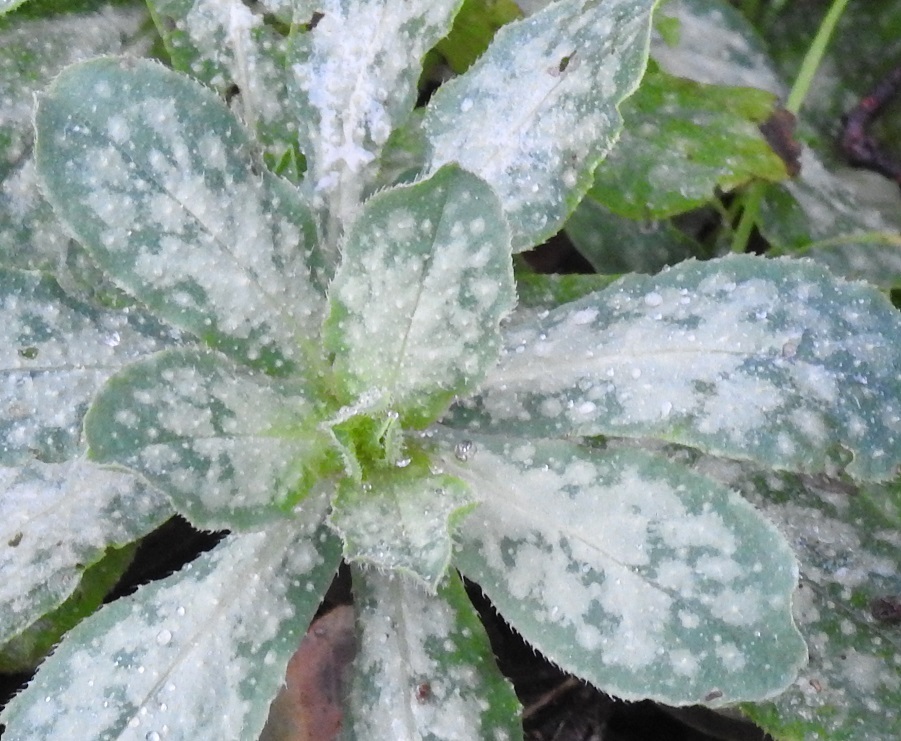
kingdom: Plantae
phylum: Tracheophyta
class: Magnoliopsida
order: Boraginales
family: Boraginaceae
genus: Cerinthe
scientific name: Cerinthe major
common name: Greater honeywort
